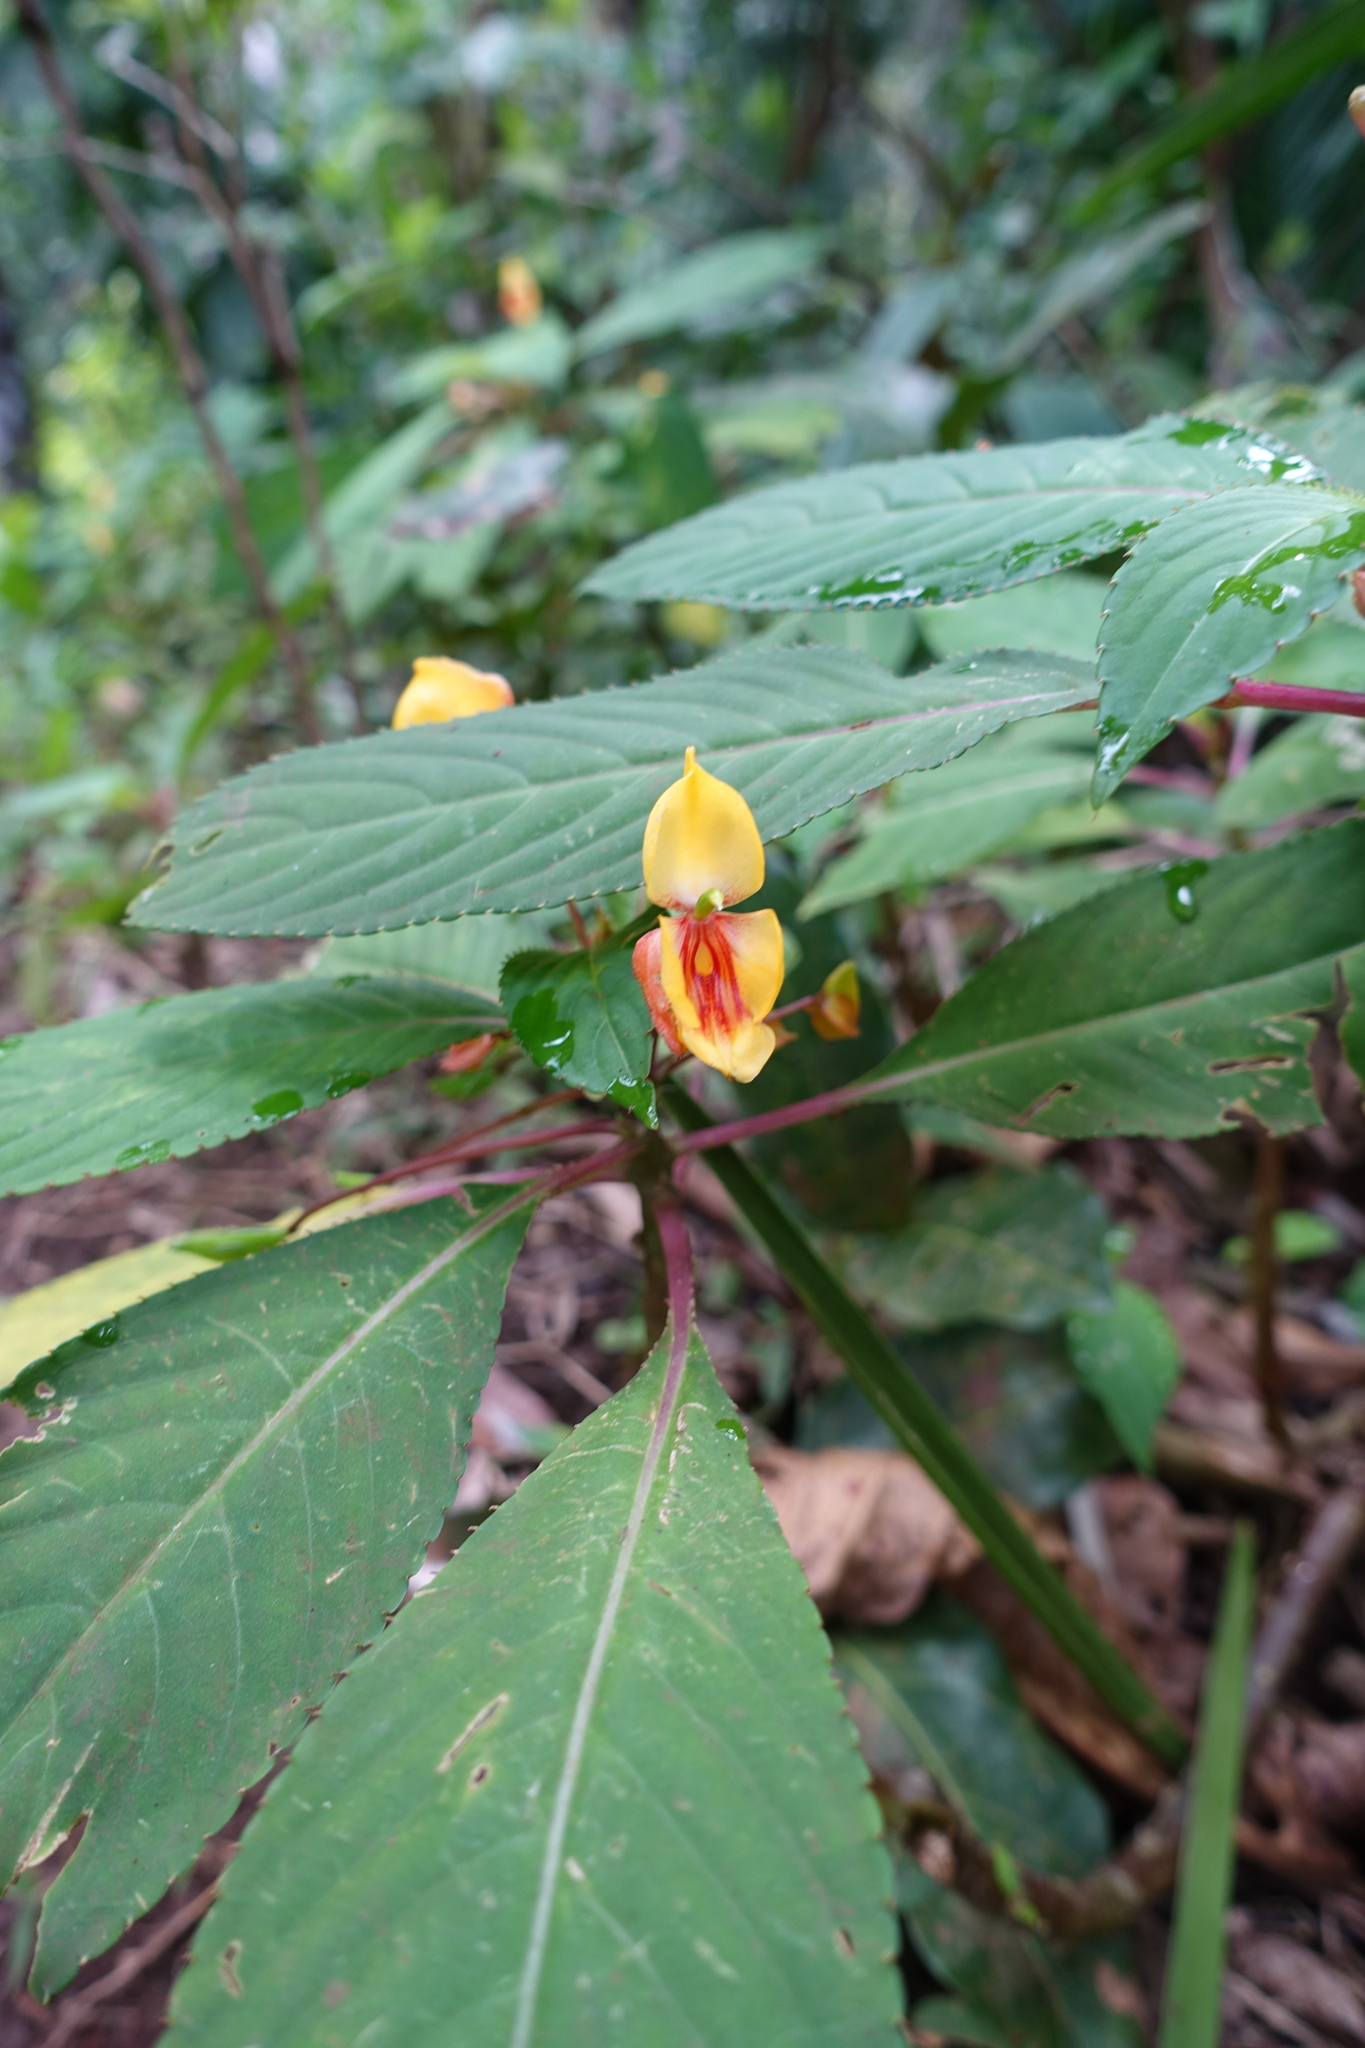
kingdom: Plantae
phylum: Tracheophyta
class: Magnoliopsida
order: Ericales
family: Balsaminaceae
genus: Impatiens
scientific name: Impatiens auricoma
